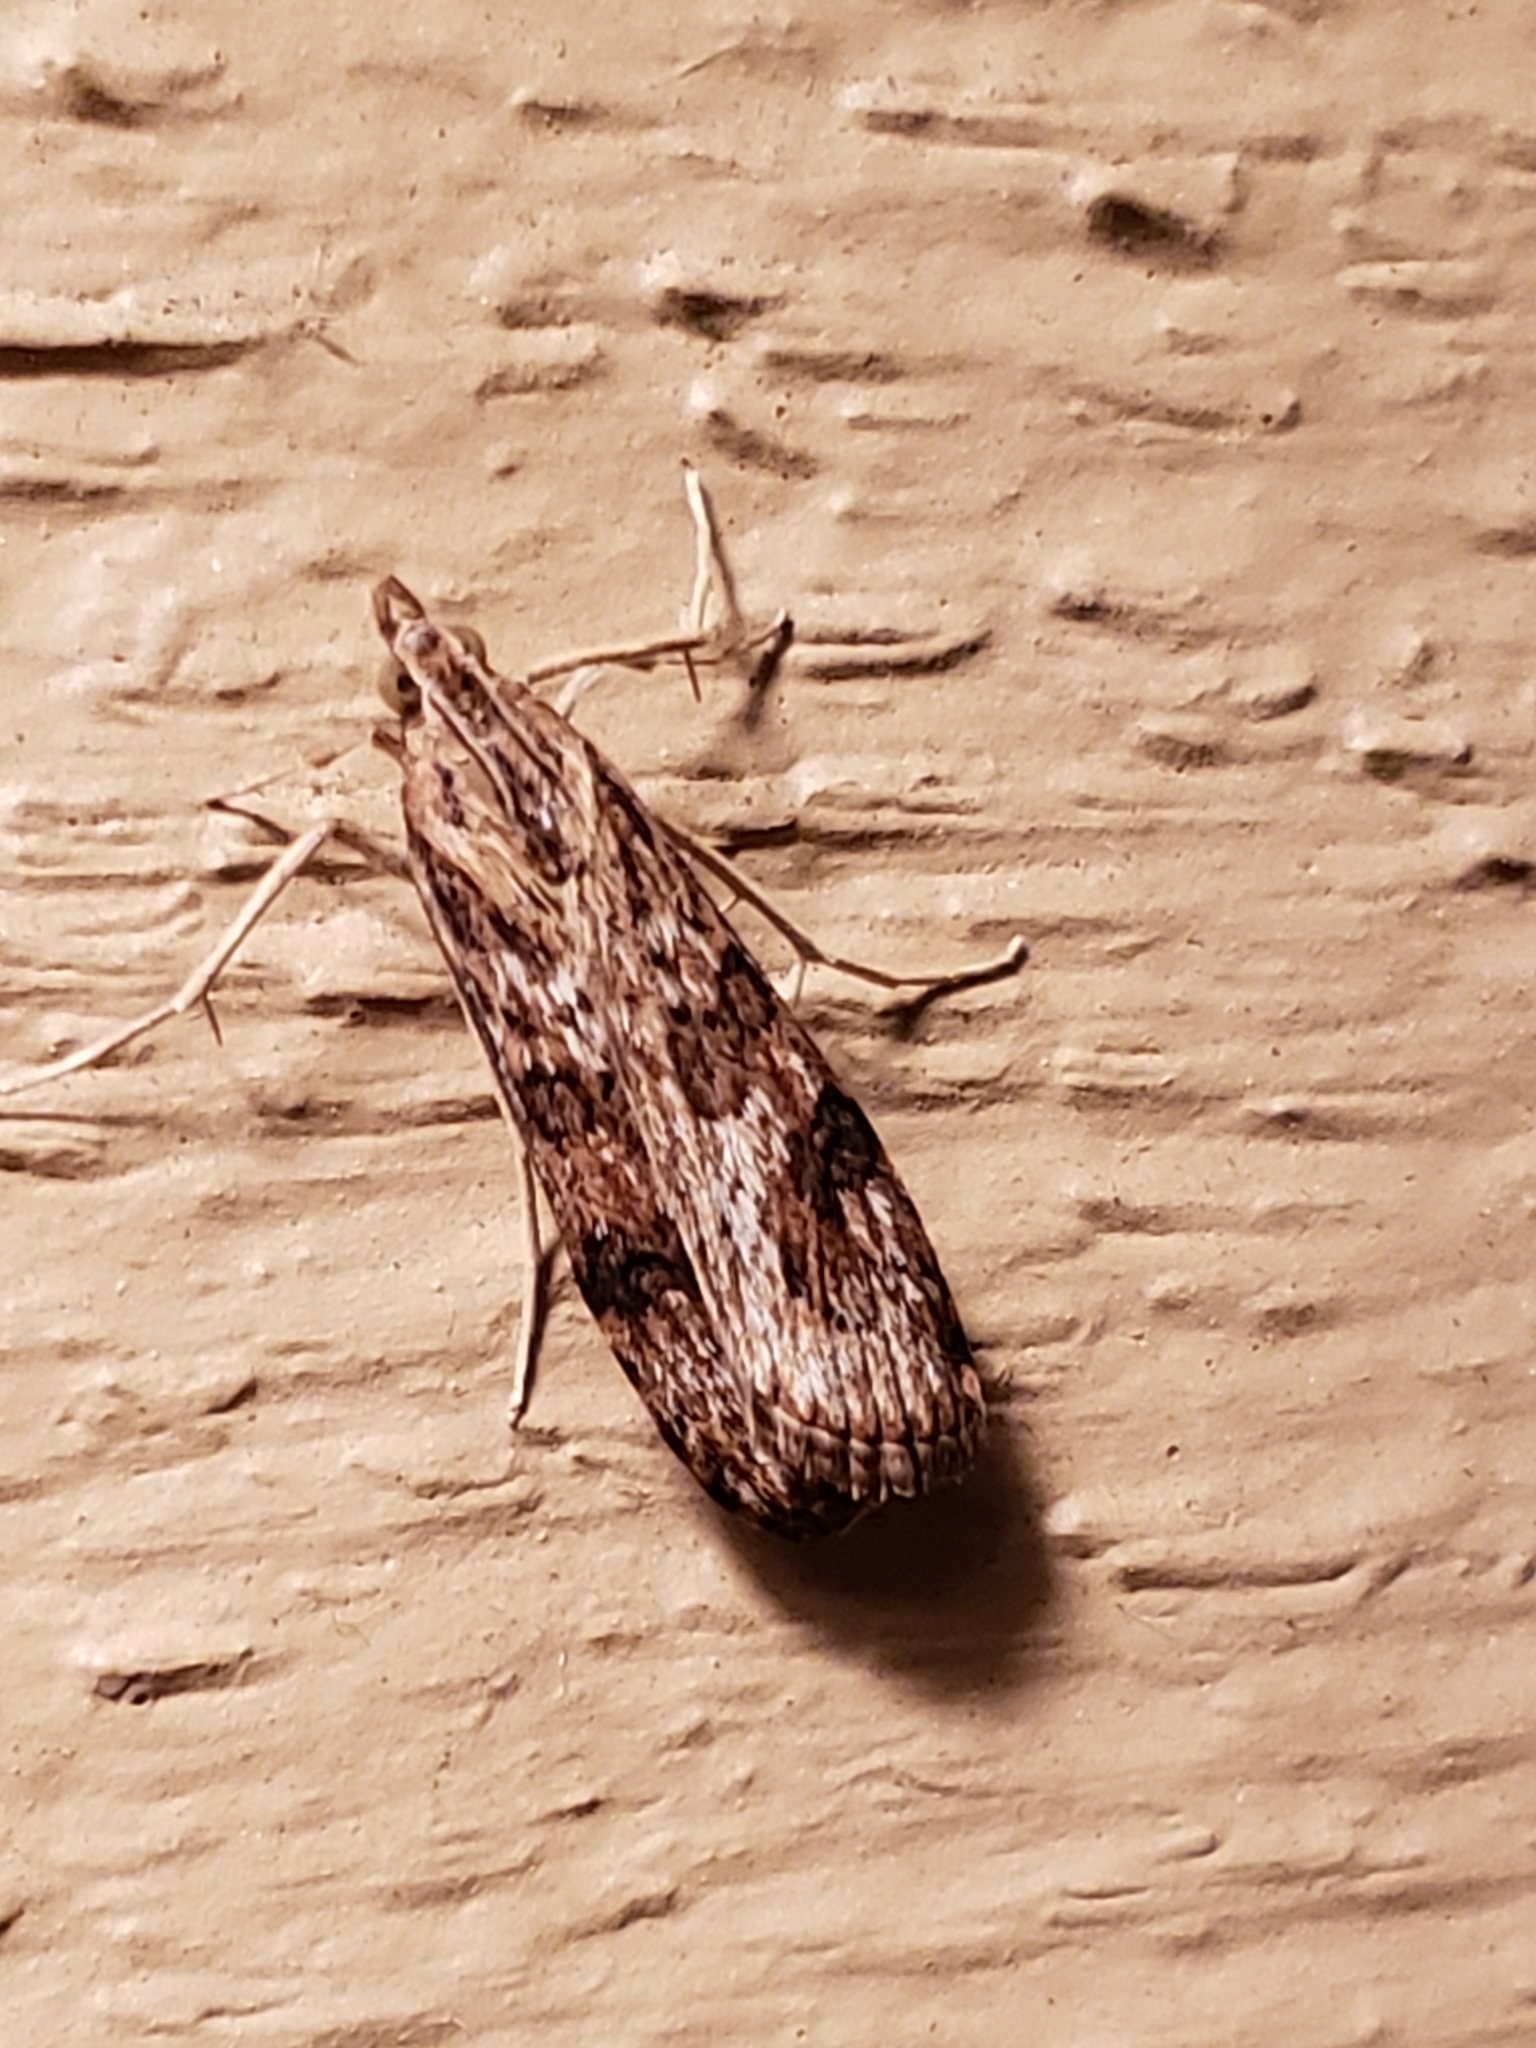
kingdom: Animalia
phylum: Arthropoda
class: Insecta
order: Lepidoptera
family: Crambidae
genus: Nomophila
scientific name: Nomophila nearctica
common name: American rush veneer
